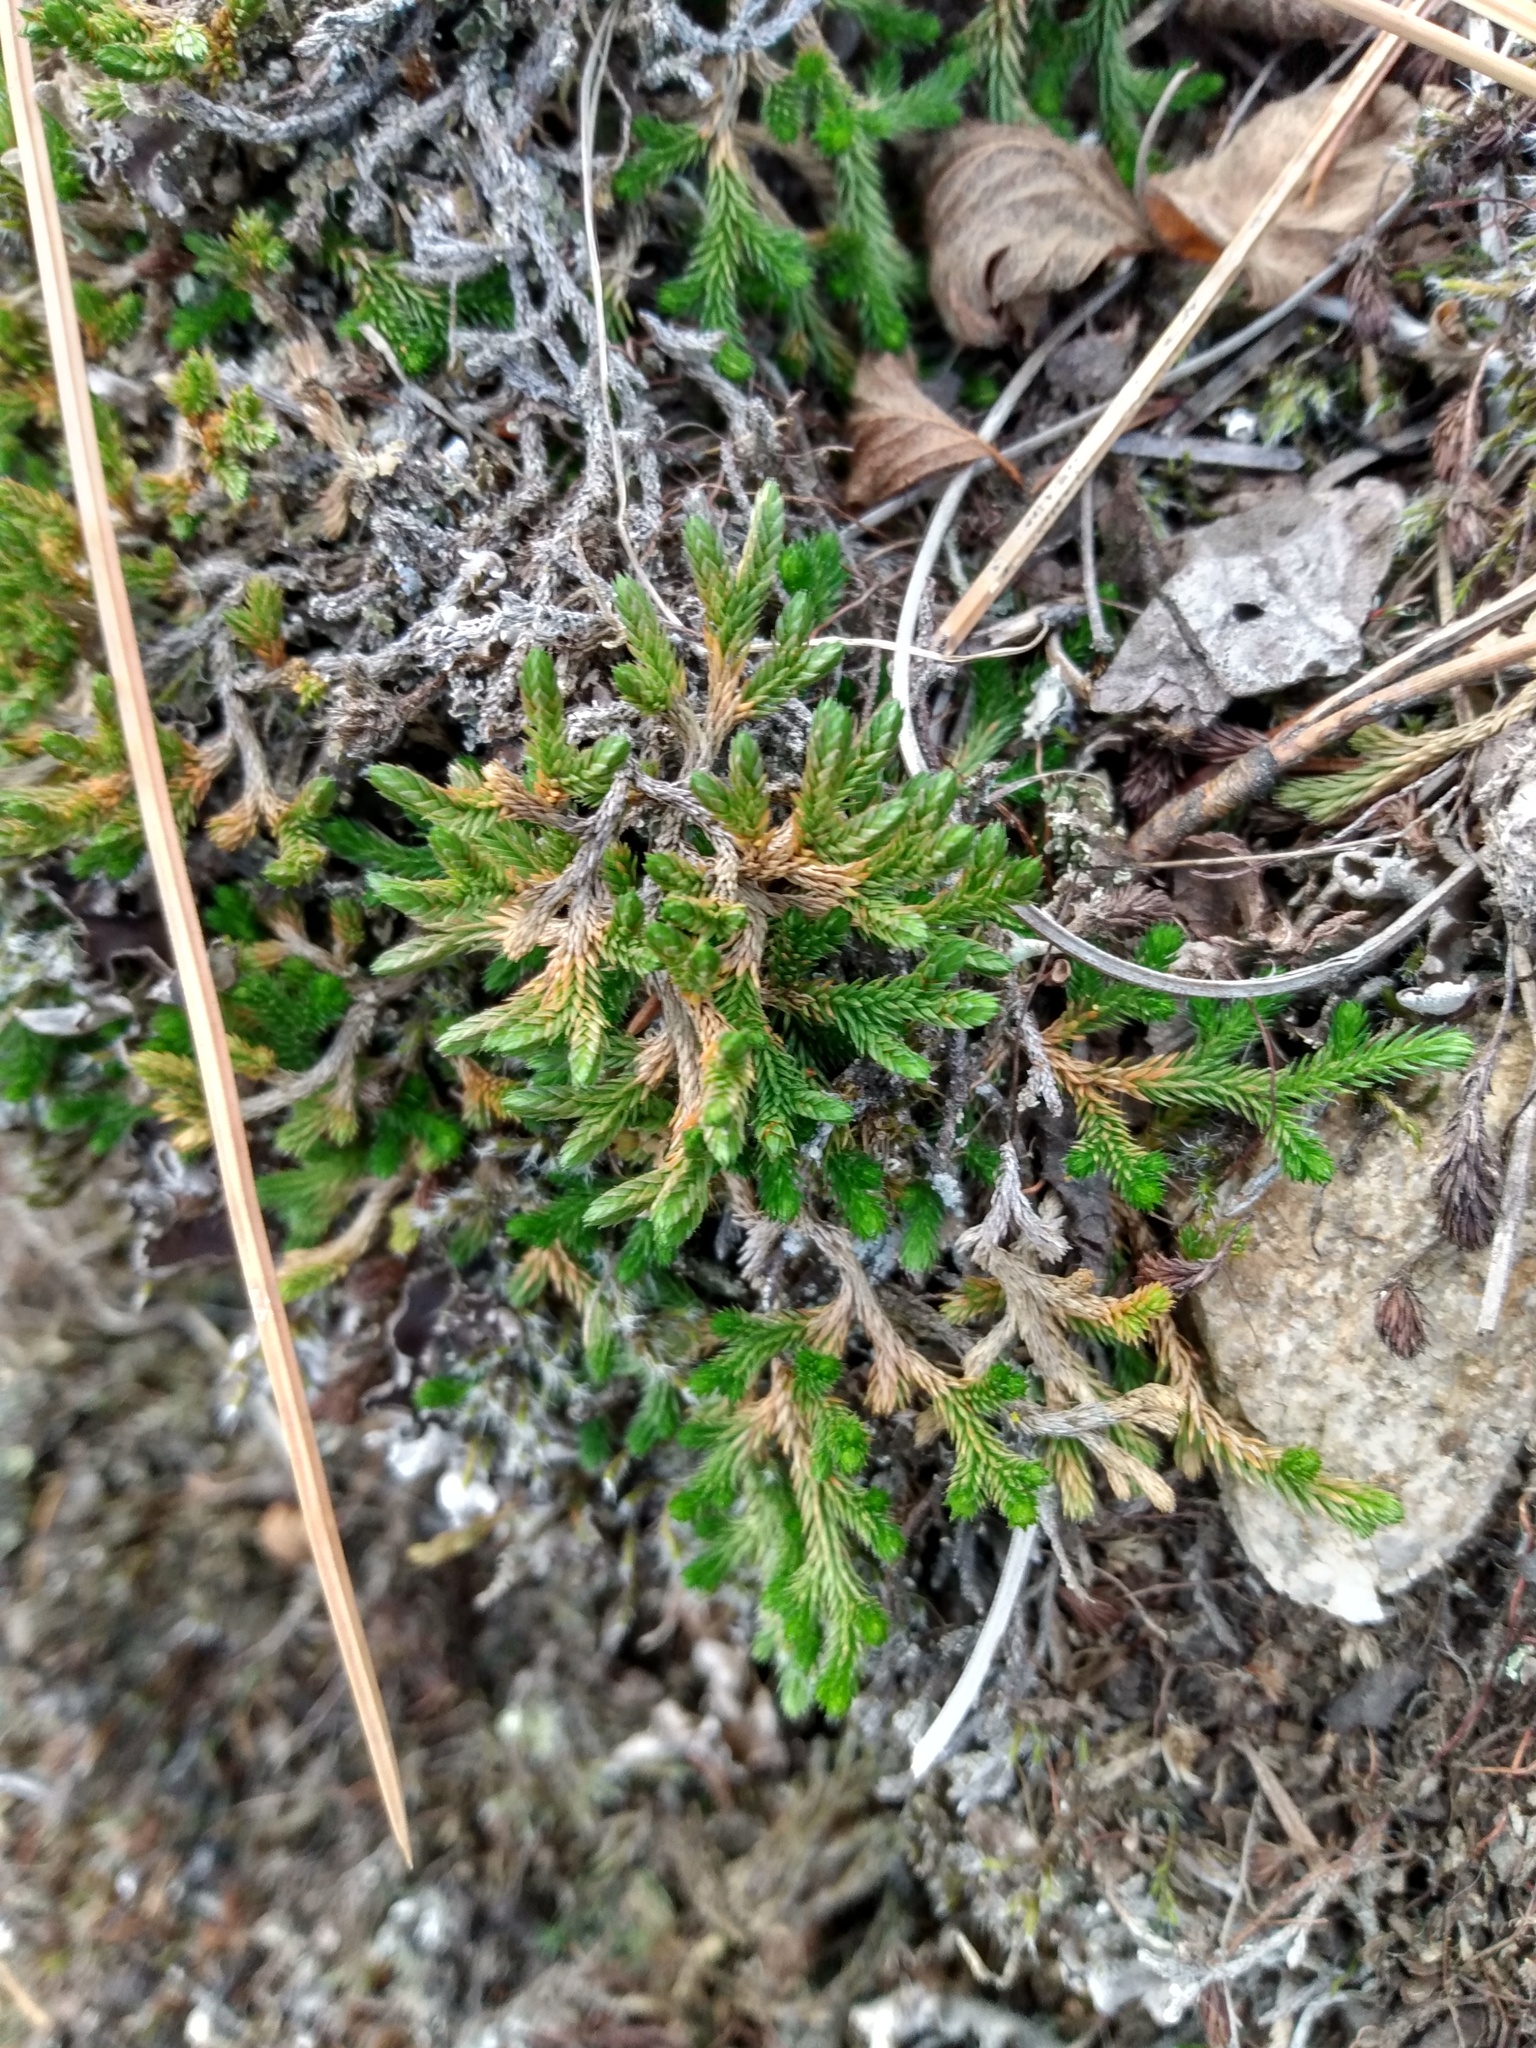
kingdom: Plantae
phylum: Tracheophyta
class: Lycopodiopsida
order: Selaginellales
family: Selaginellaceae
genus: Selaginella
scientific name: Selaginella wallacei
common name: Wallace's selaginella
